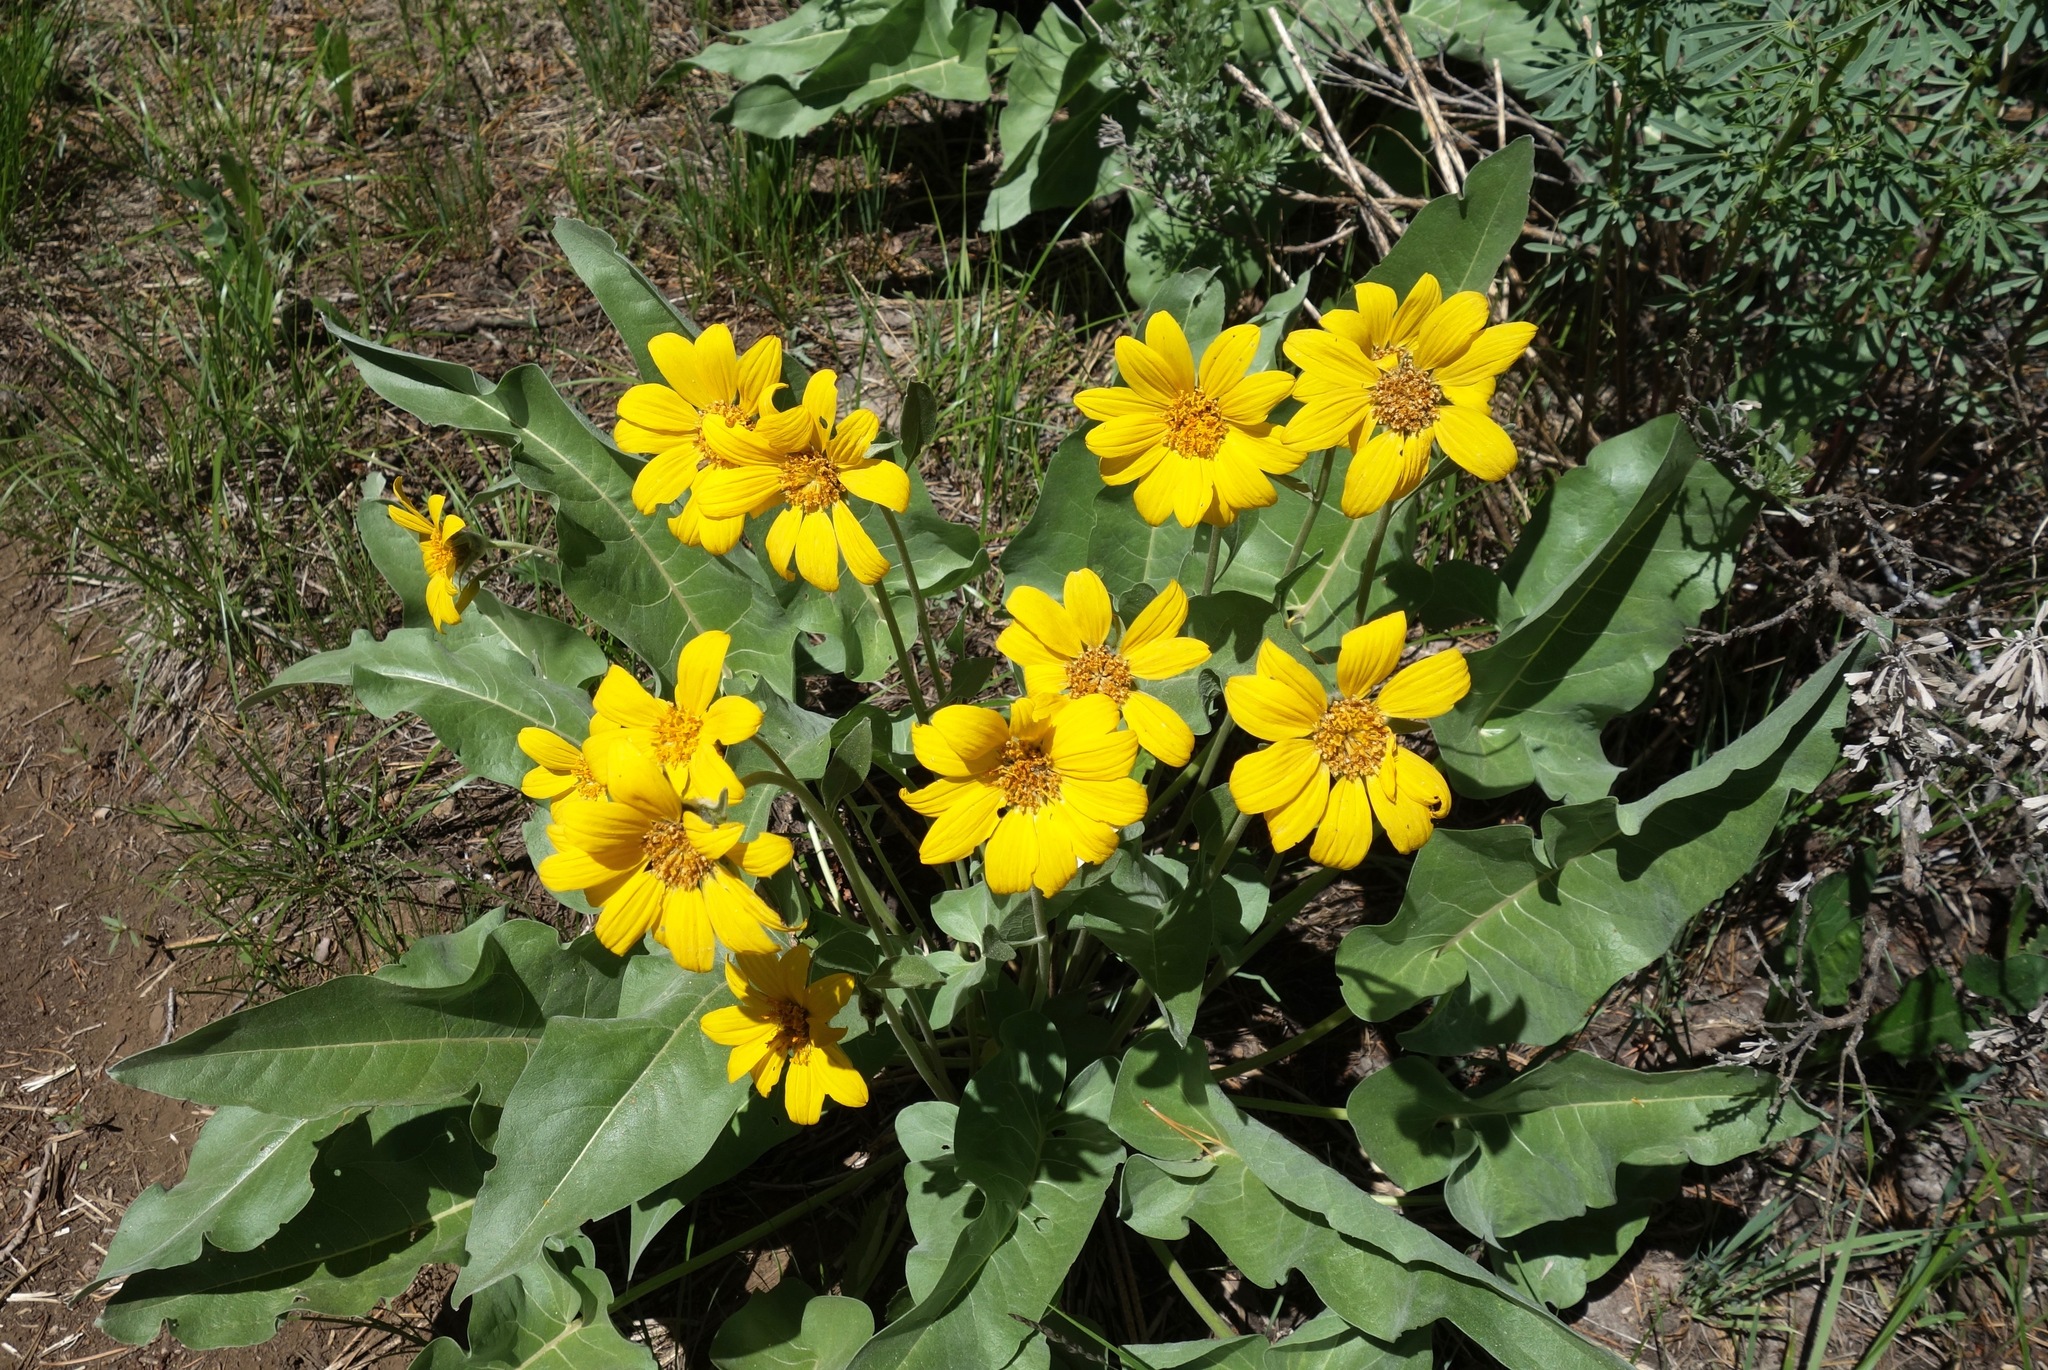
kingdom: Plantae
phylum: Tracheophyta
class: Magnoliopsida
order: Asterales
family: Asteraceae
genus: Wyethia
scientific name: Wyethia sagittata
